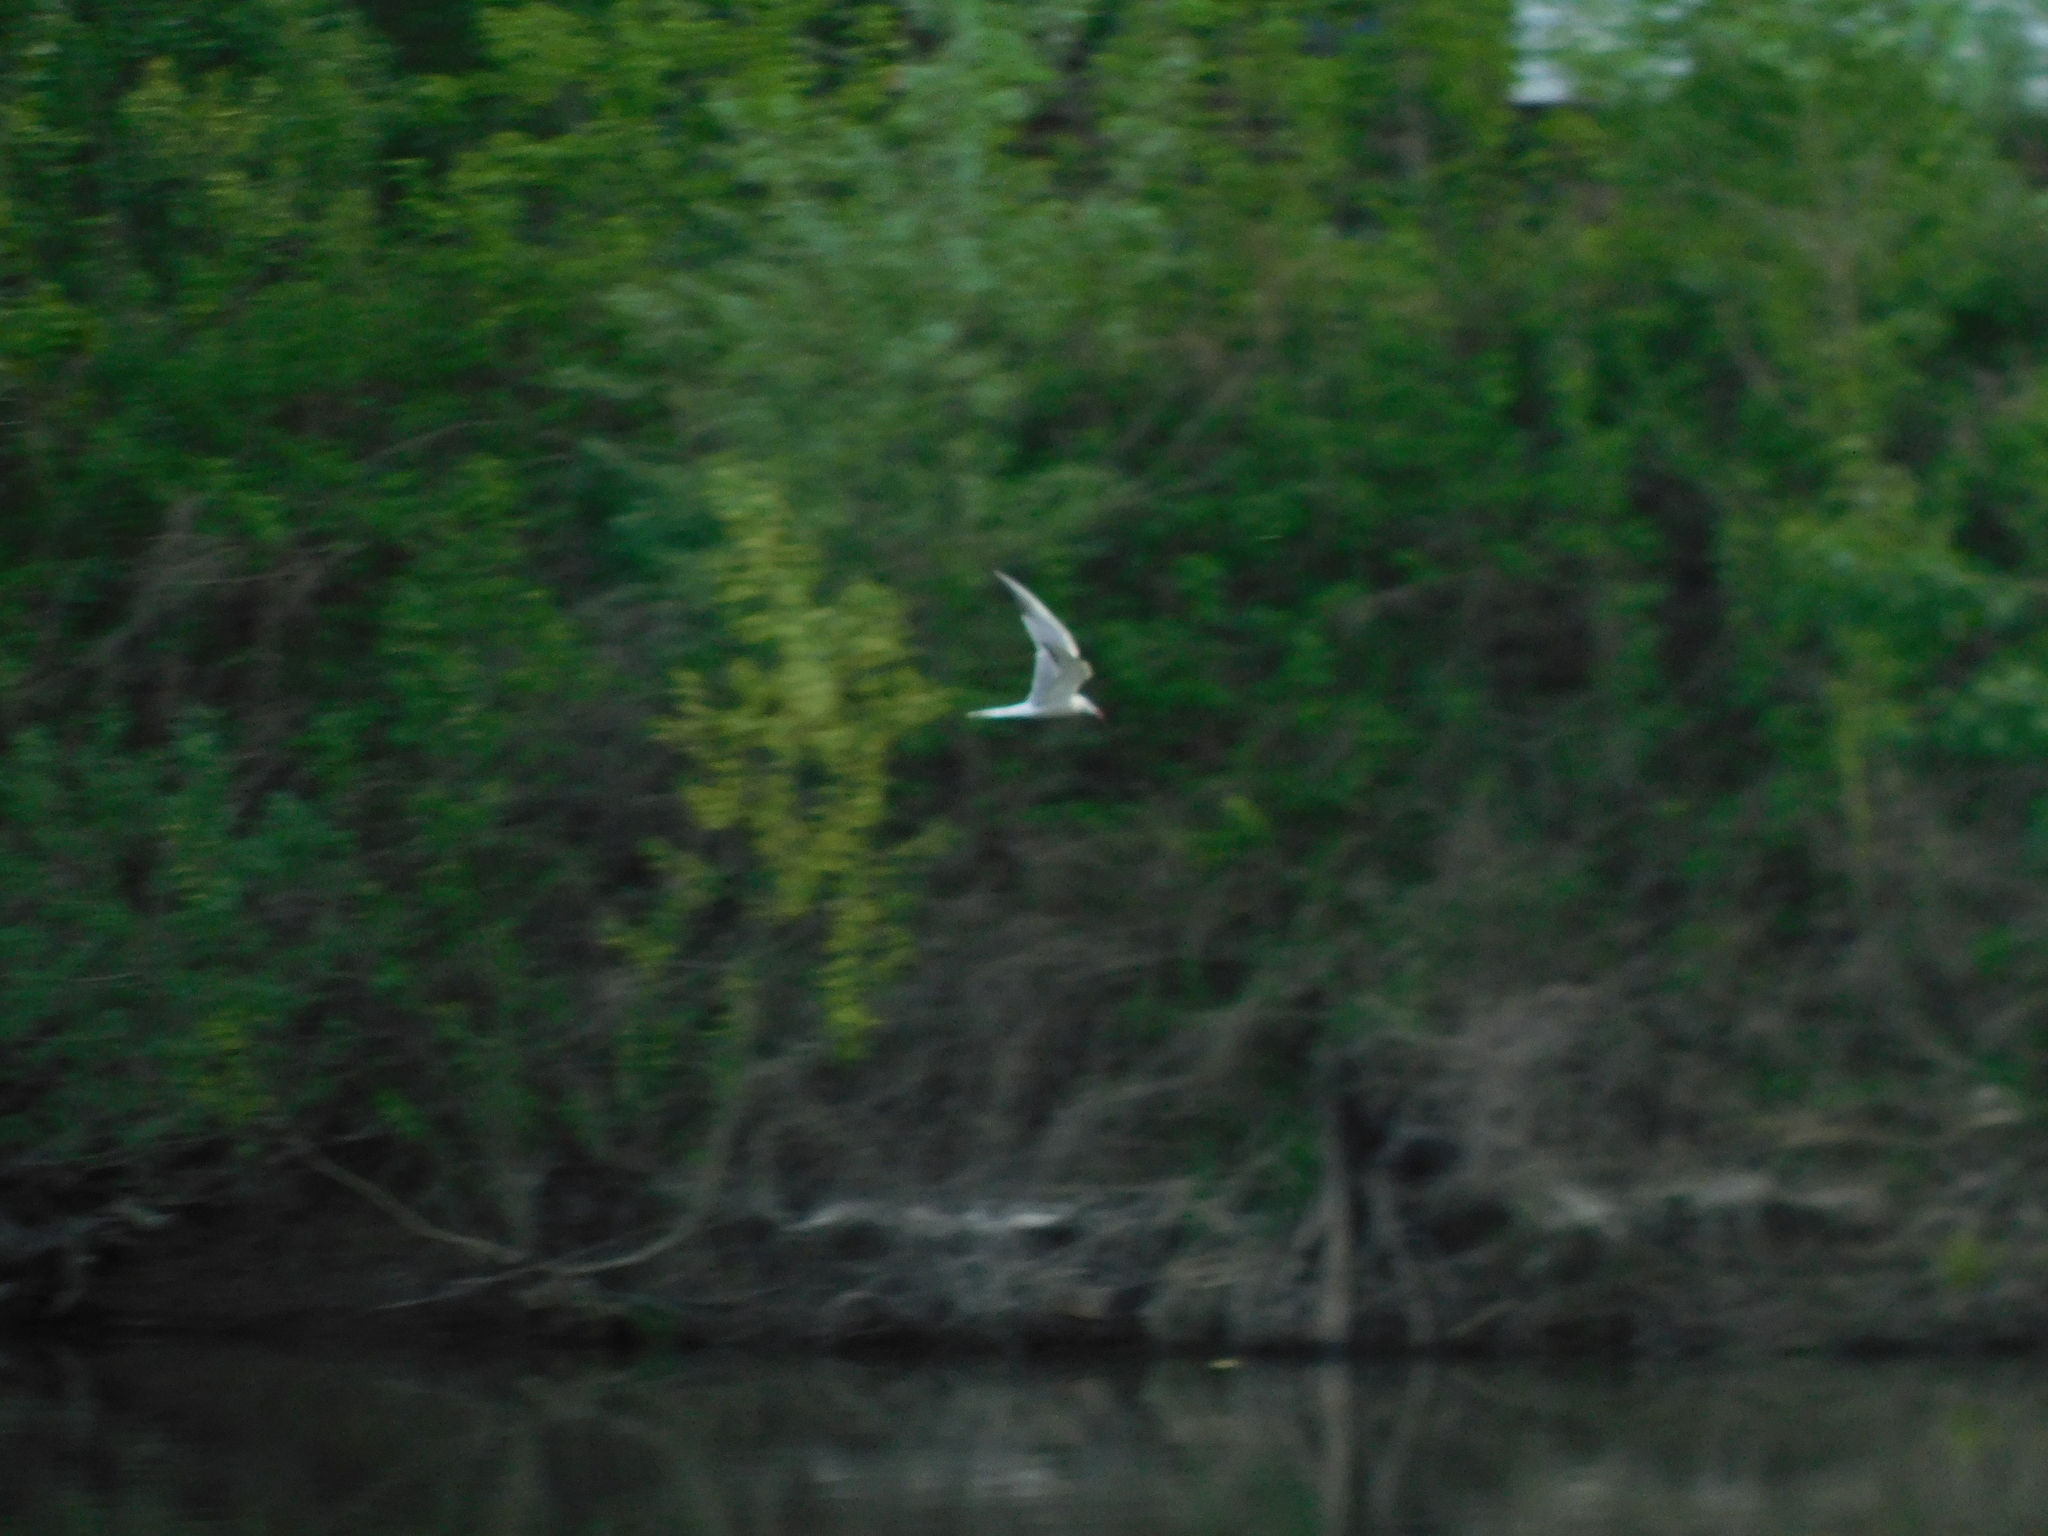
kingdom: Animalia
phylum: Chordata
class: Aves
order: Charadriiformes
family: Laridae
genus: Sterna
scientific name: Sterna hirundo
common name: Common tern
